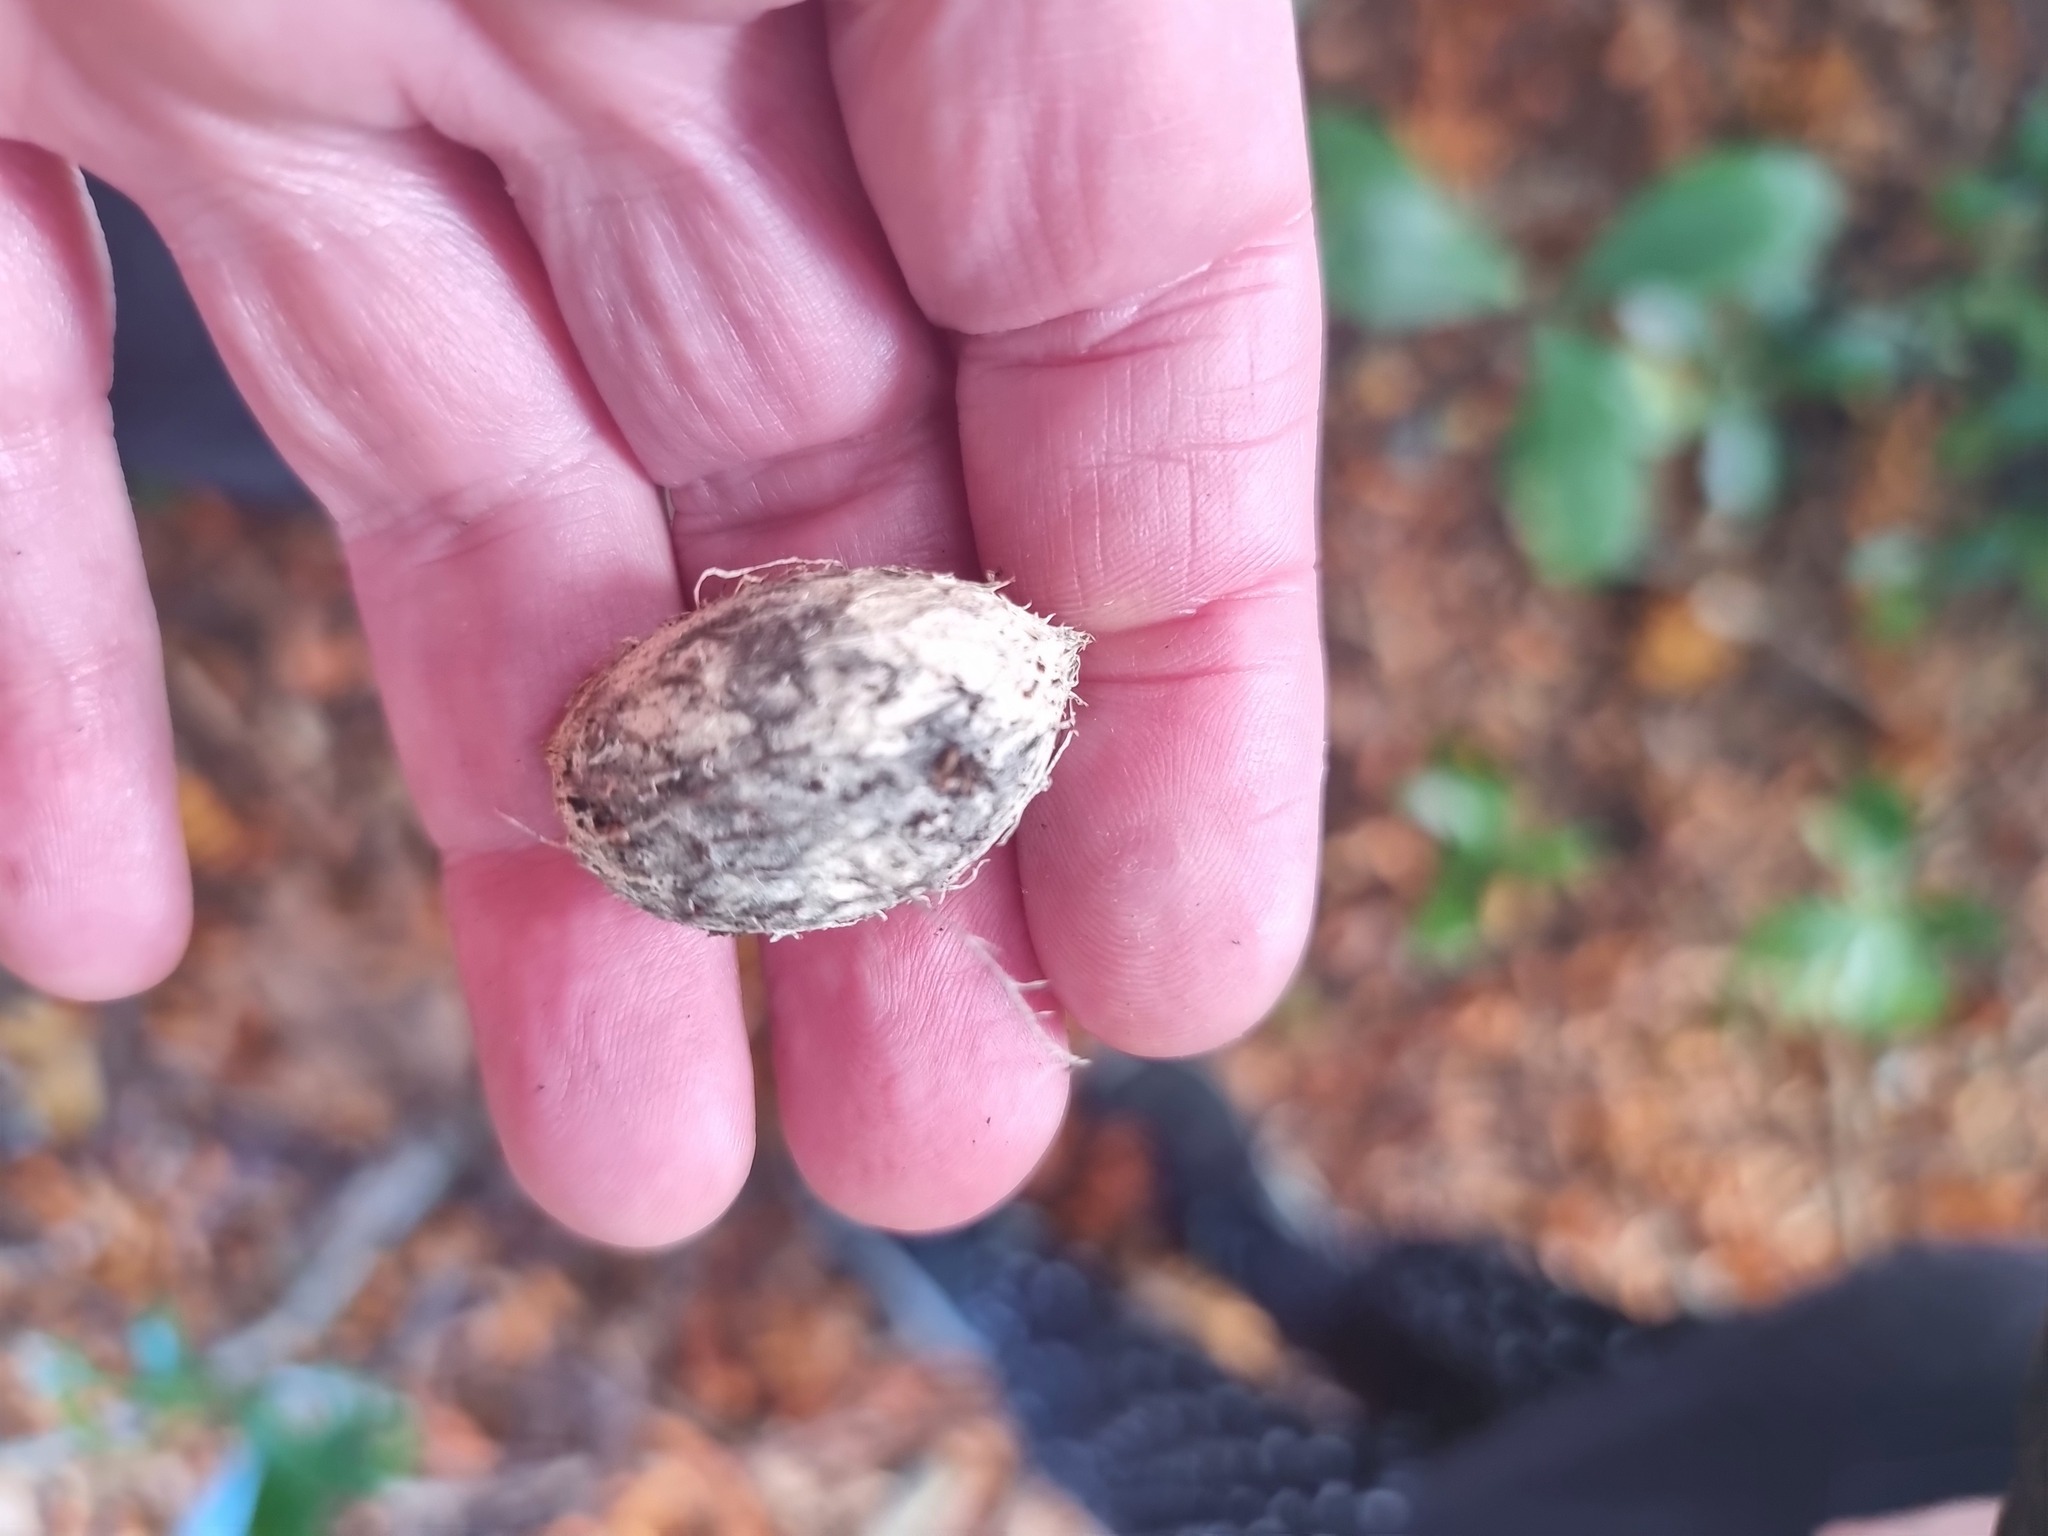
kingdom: Plantae
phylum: Tracheophyta
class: Magnoliopsida
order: Cucurbitales
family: Corynocarpaceae
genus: Corynocarpus
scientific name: Corynocarpus laevigatus
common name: New zealand laurel
